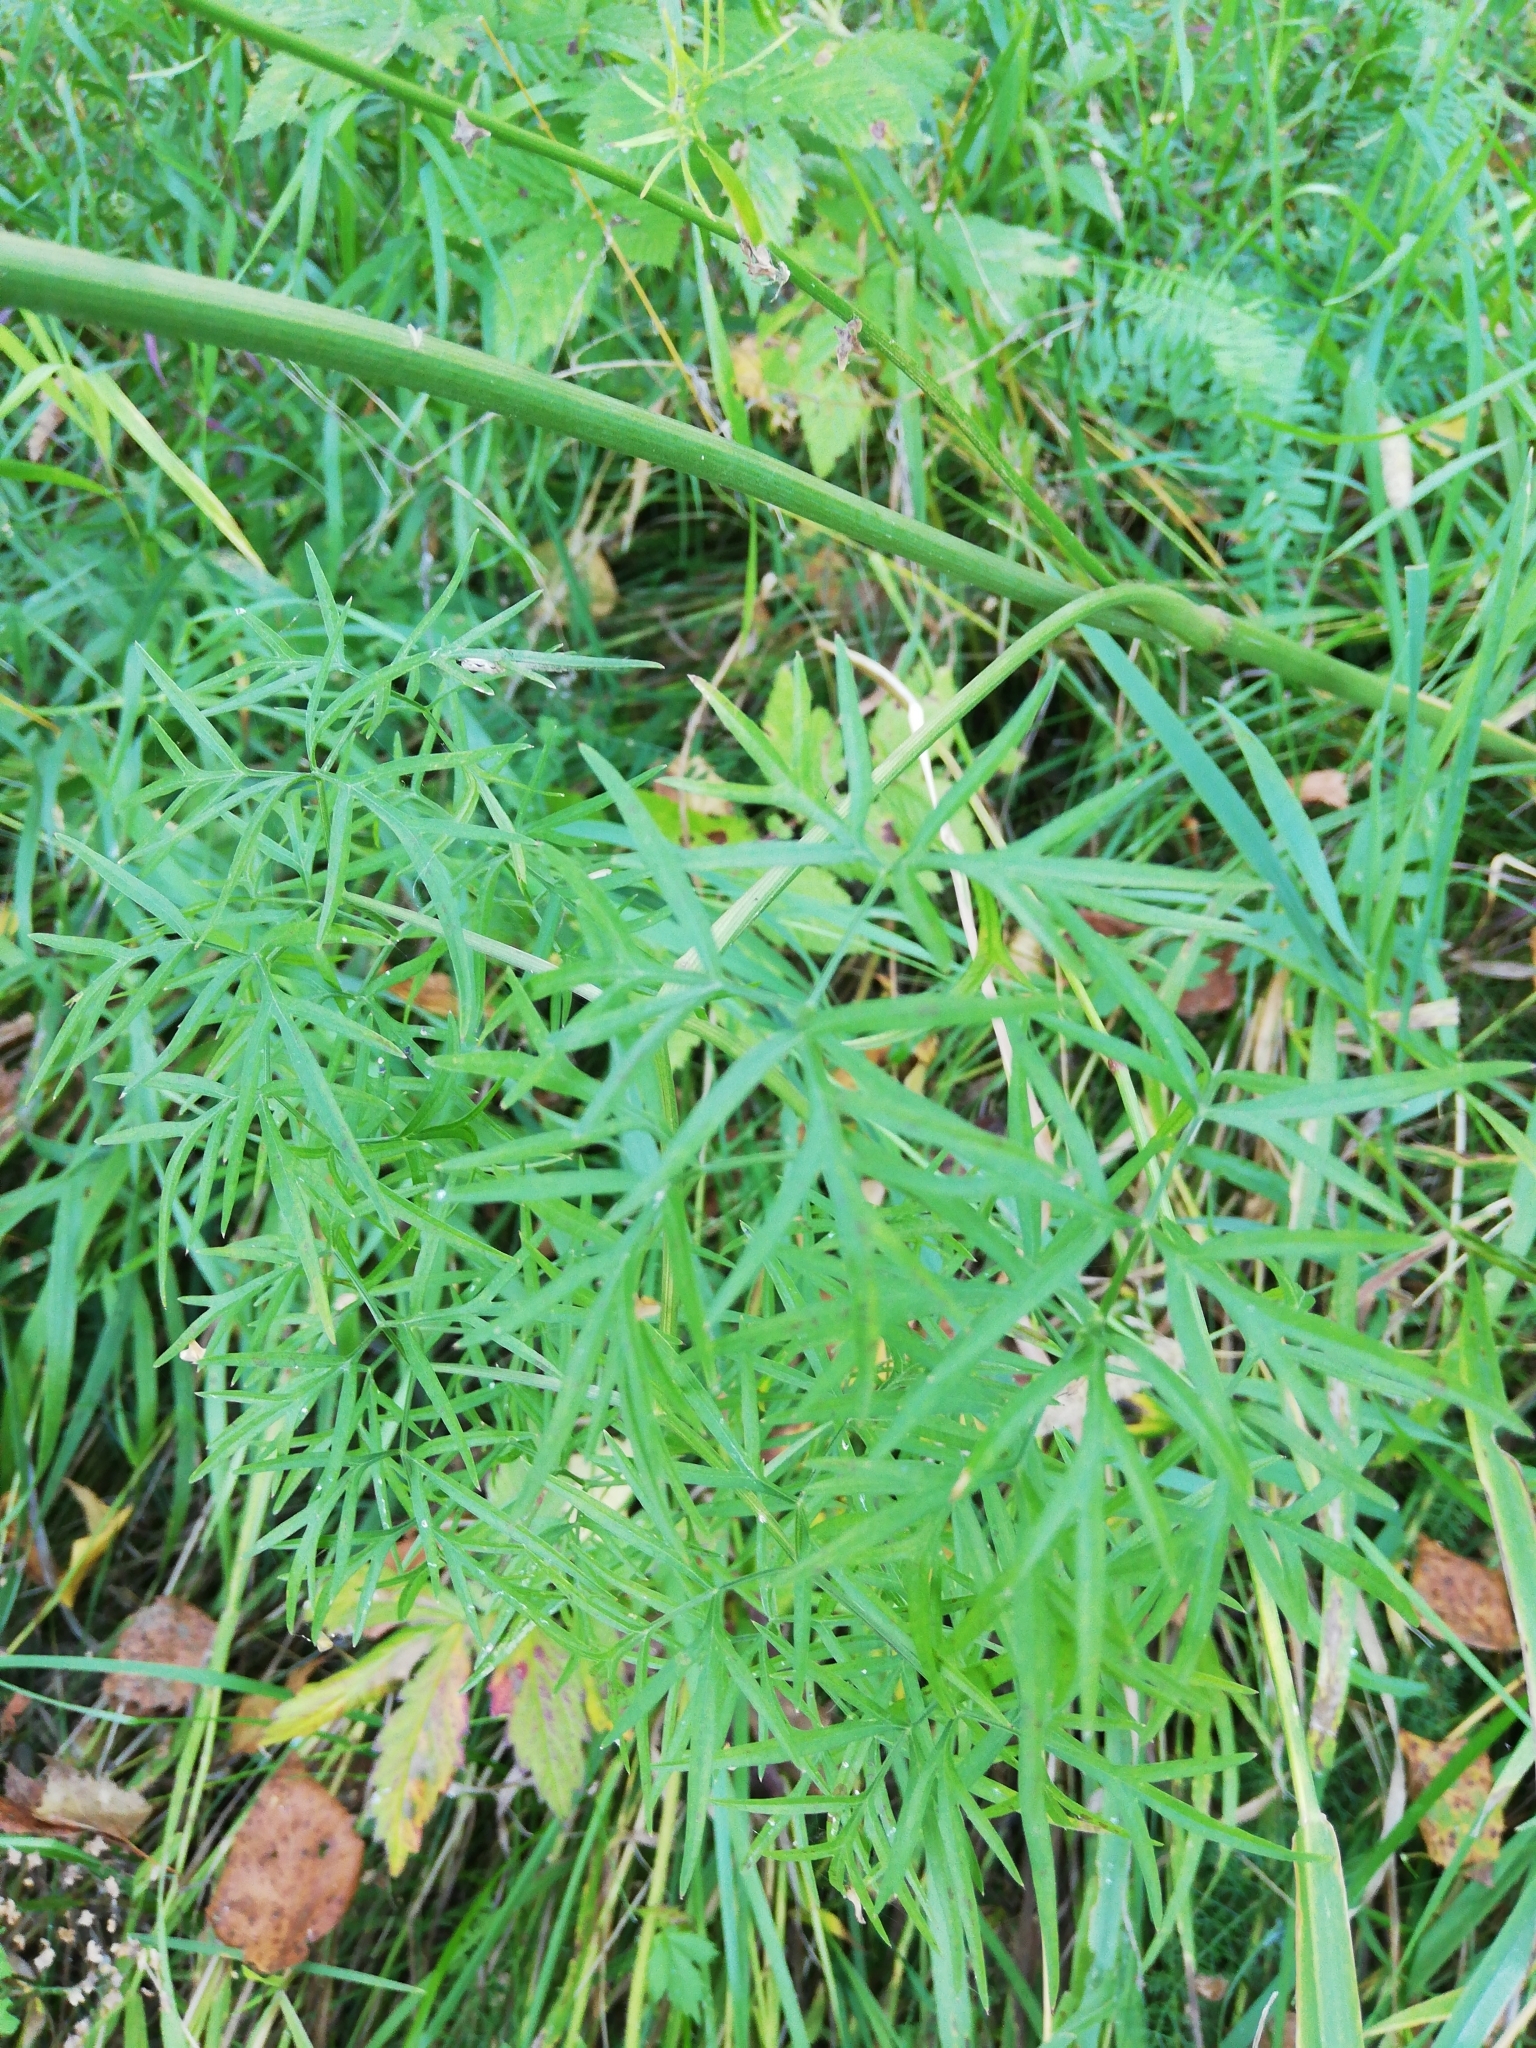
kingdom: Plantae
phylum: Tracheophyta
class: Magnoliopsida
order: Apiales
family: Apiaceae
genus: Cenolophium
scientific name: Cenolophium fischeri
